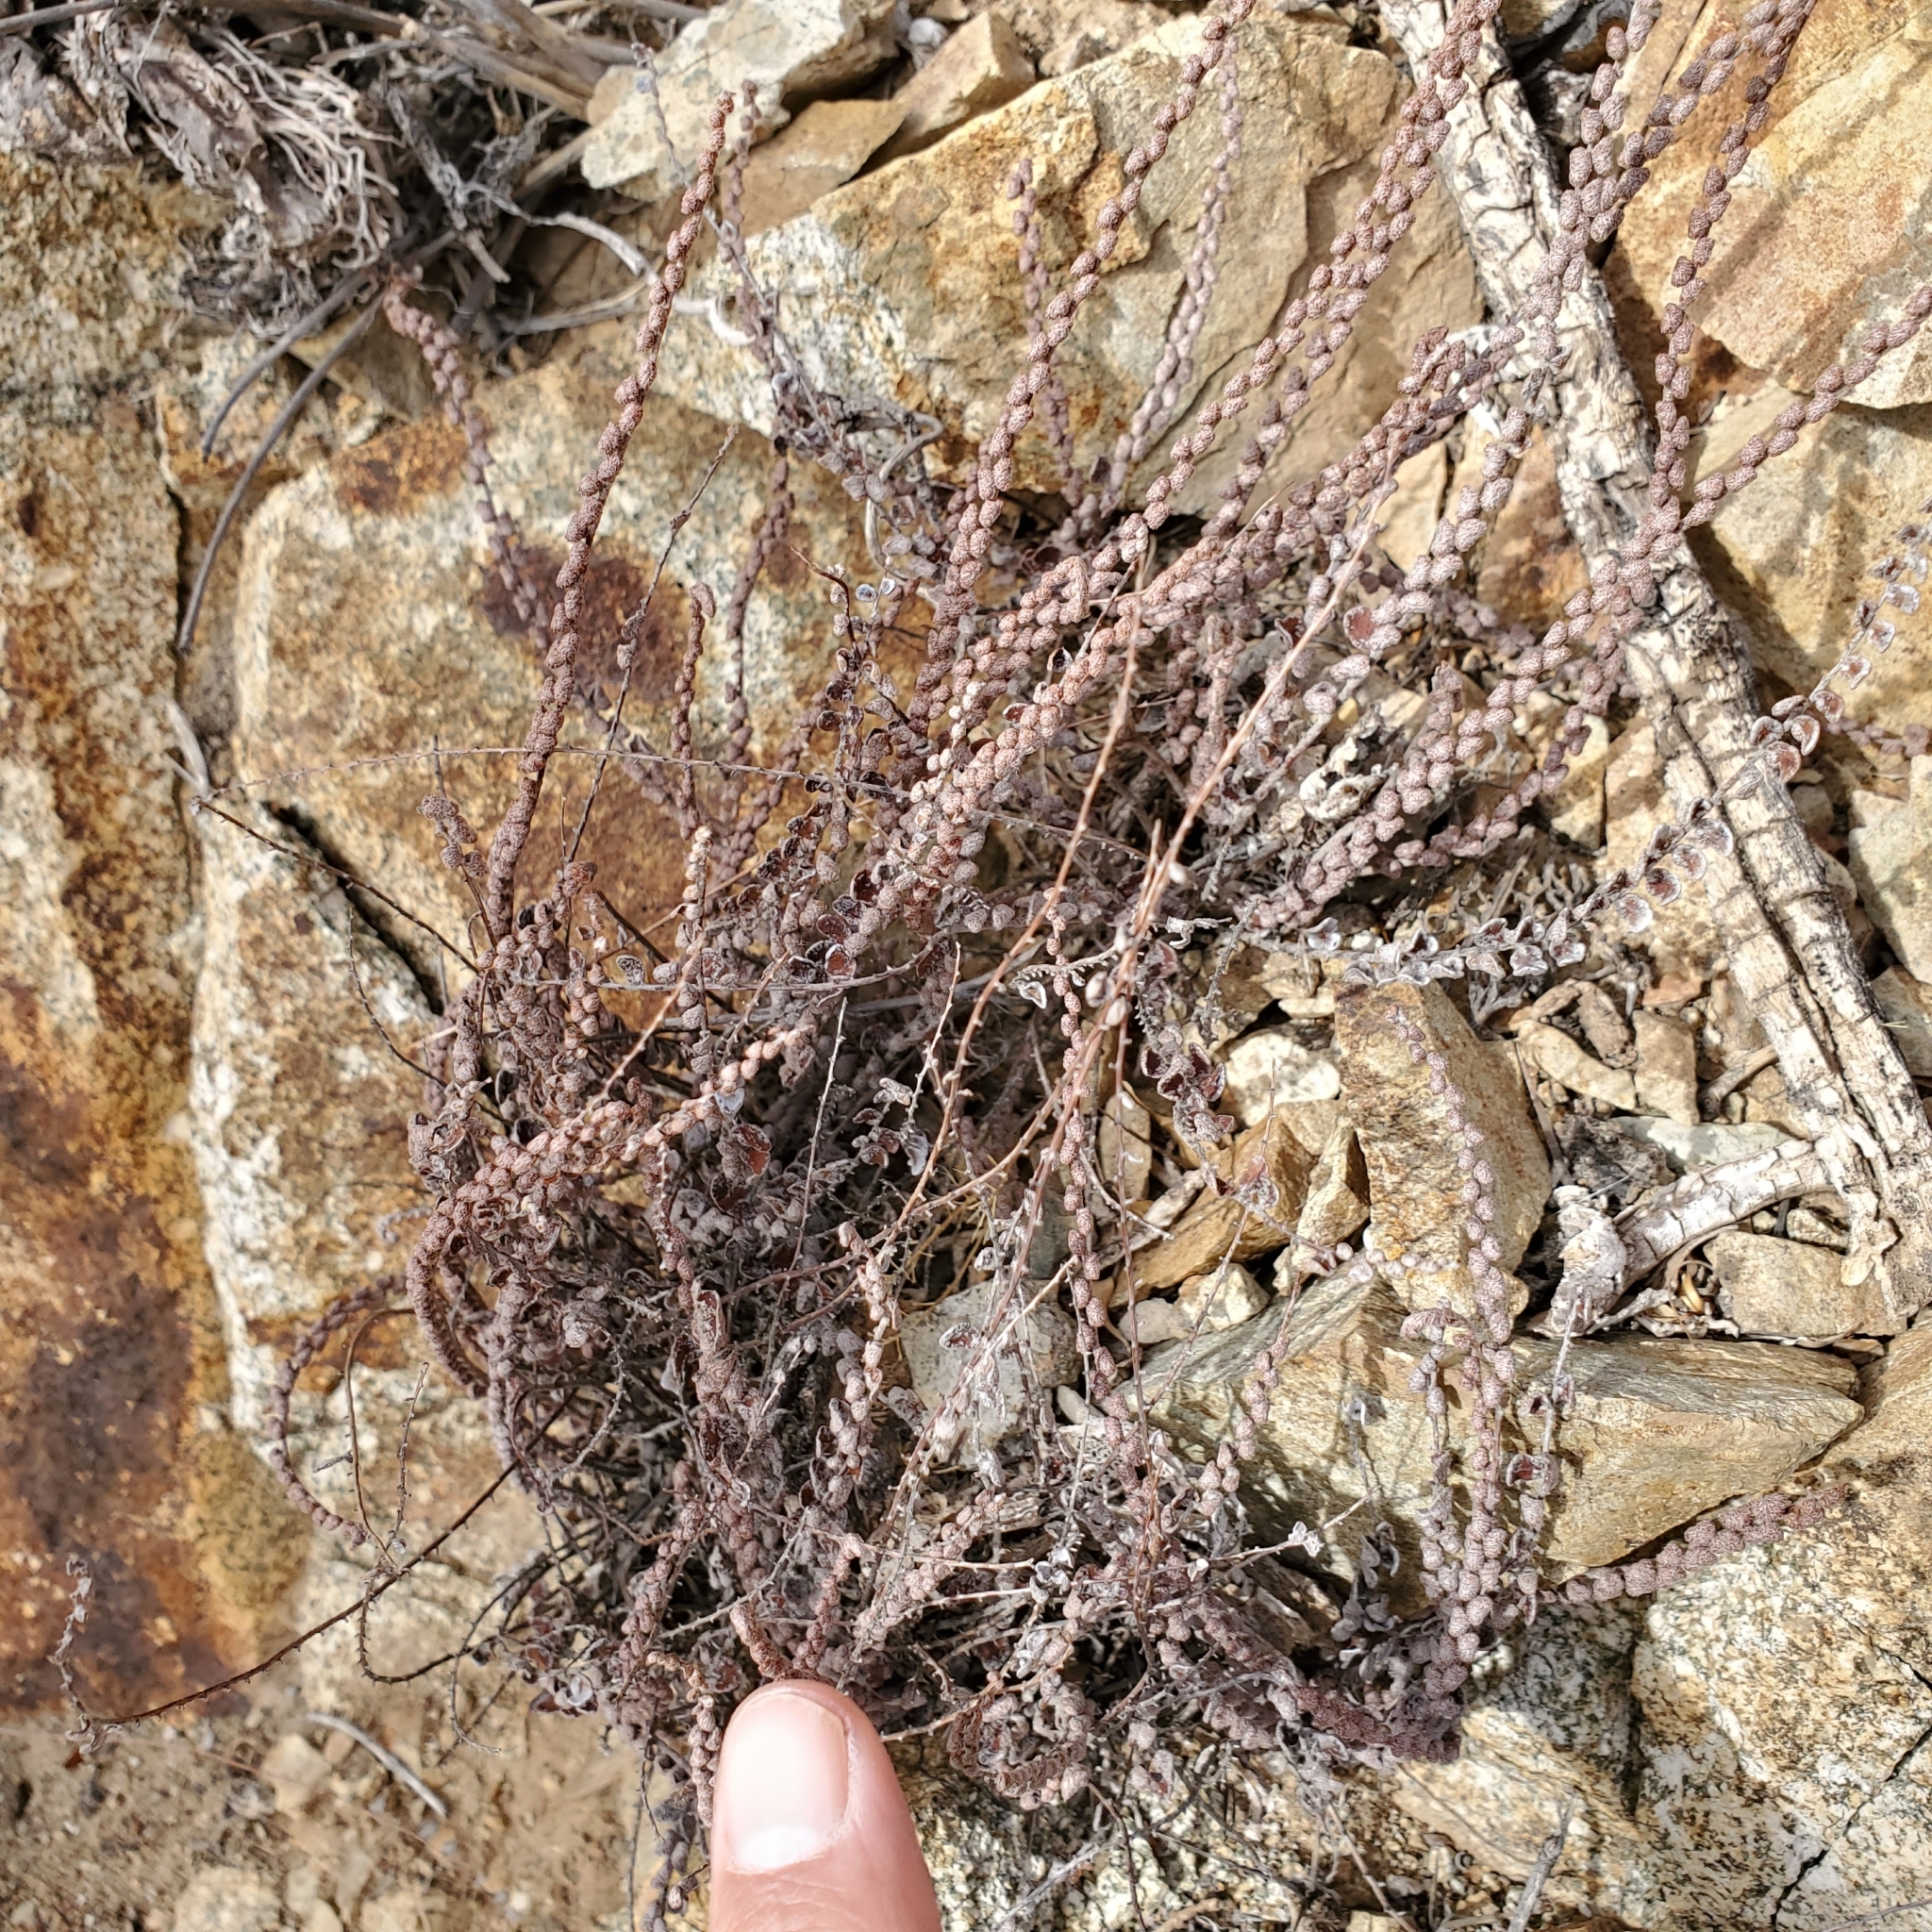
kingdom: Plantae
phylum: Tracheophyta
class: Polypodiopsida
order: Polypodiales
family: Pteridaceae
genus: Astrolepis
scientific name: Astrolepis cochisensis
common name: Scaly cloak fern
